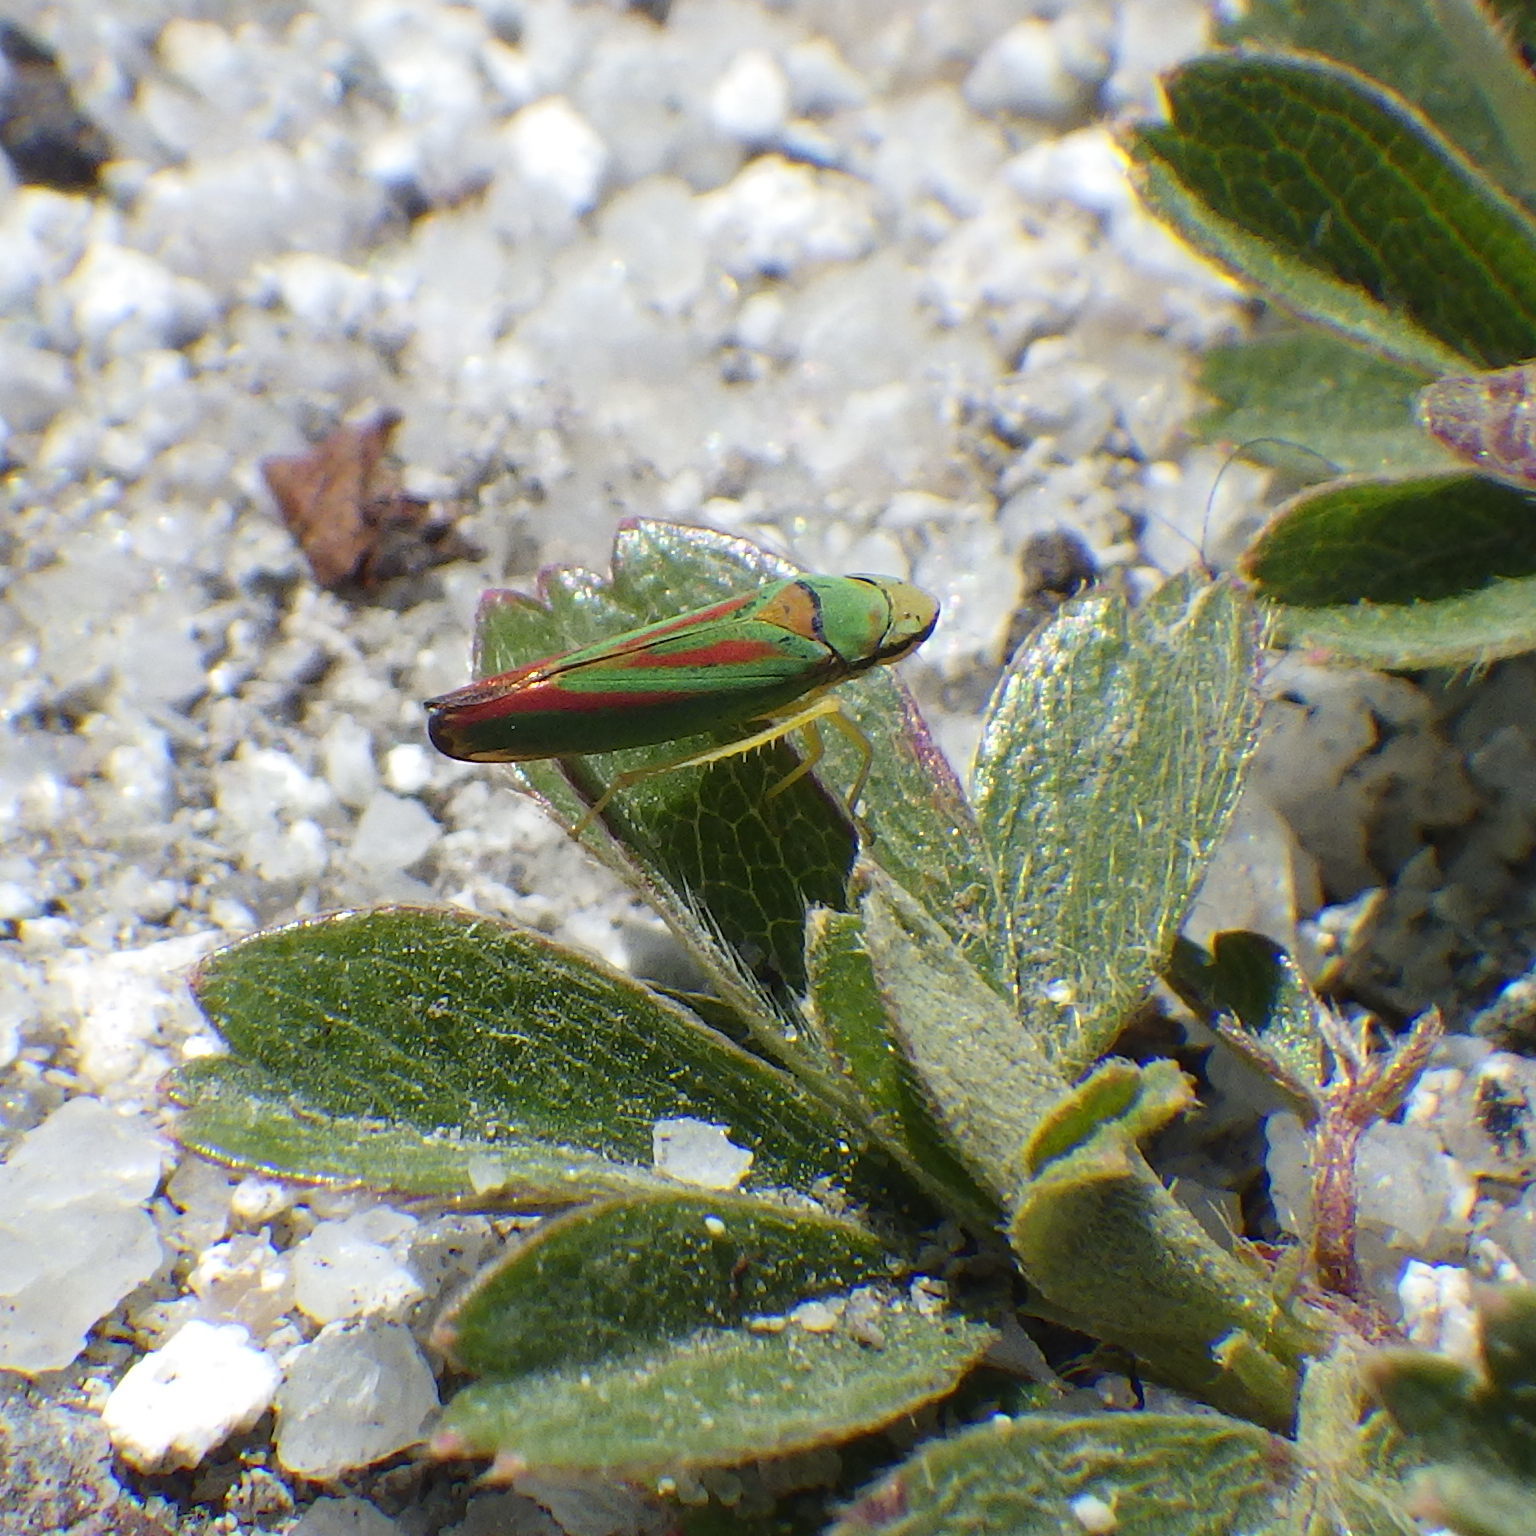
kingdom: Animalia
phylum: Arthropoda
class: Insecta
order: Hemiptera
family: Cicadellidae
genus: Graphocephala
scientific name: Graphocephala fennahi
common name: Rhododendron leafhopper
